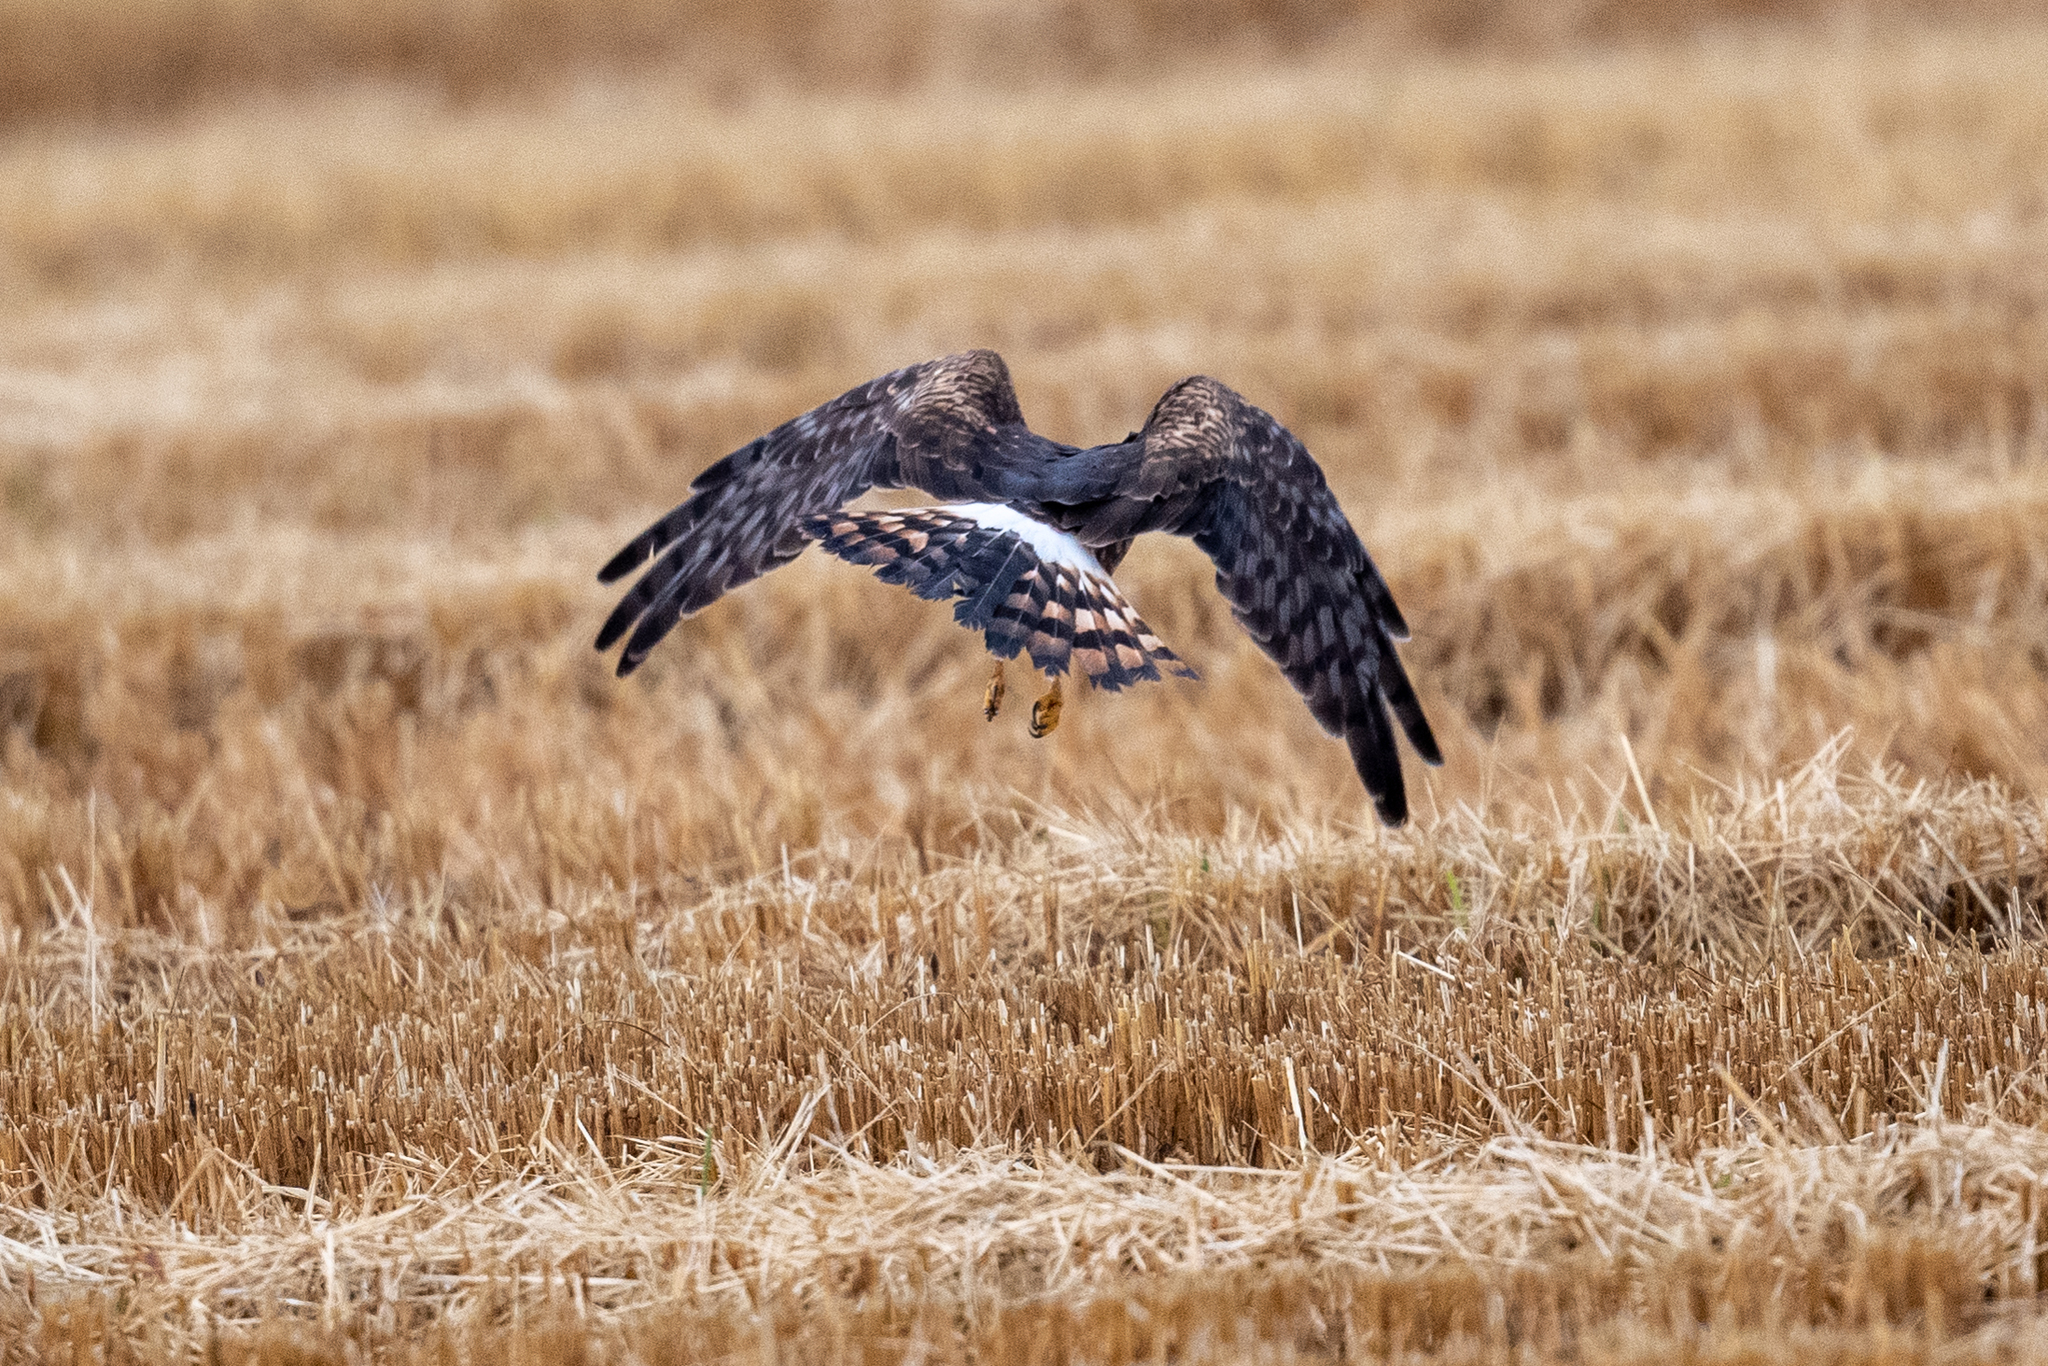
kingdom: Animalia
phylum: Chordata
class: Aves
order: Accipitriformes
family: Accipitridae
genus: Circus
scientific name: Circus cyaneus
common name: Hen harrier
